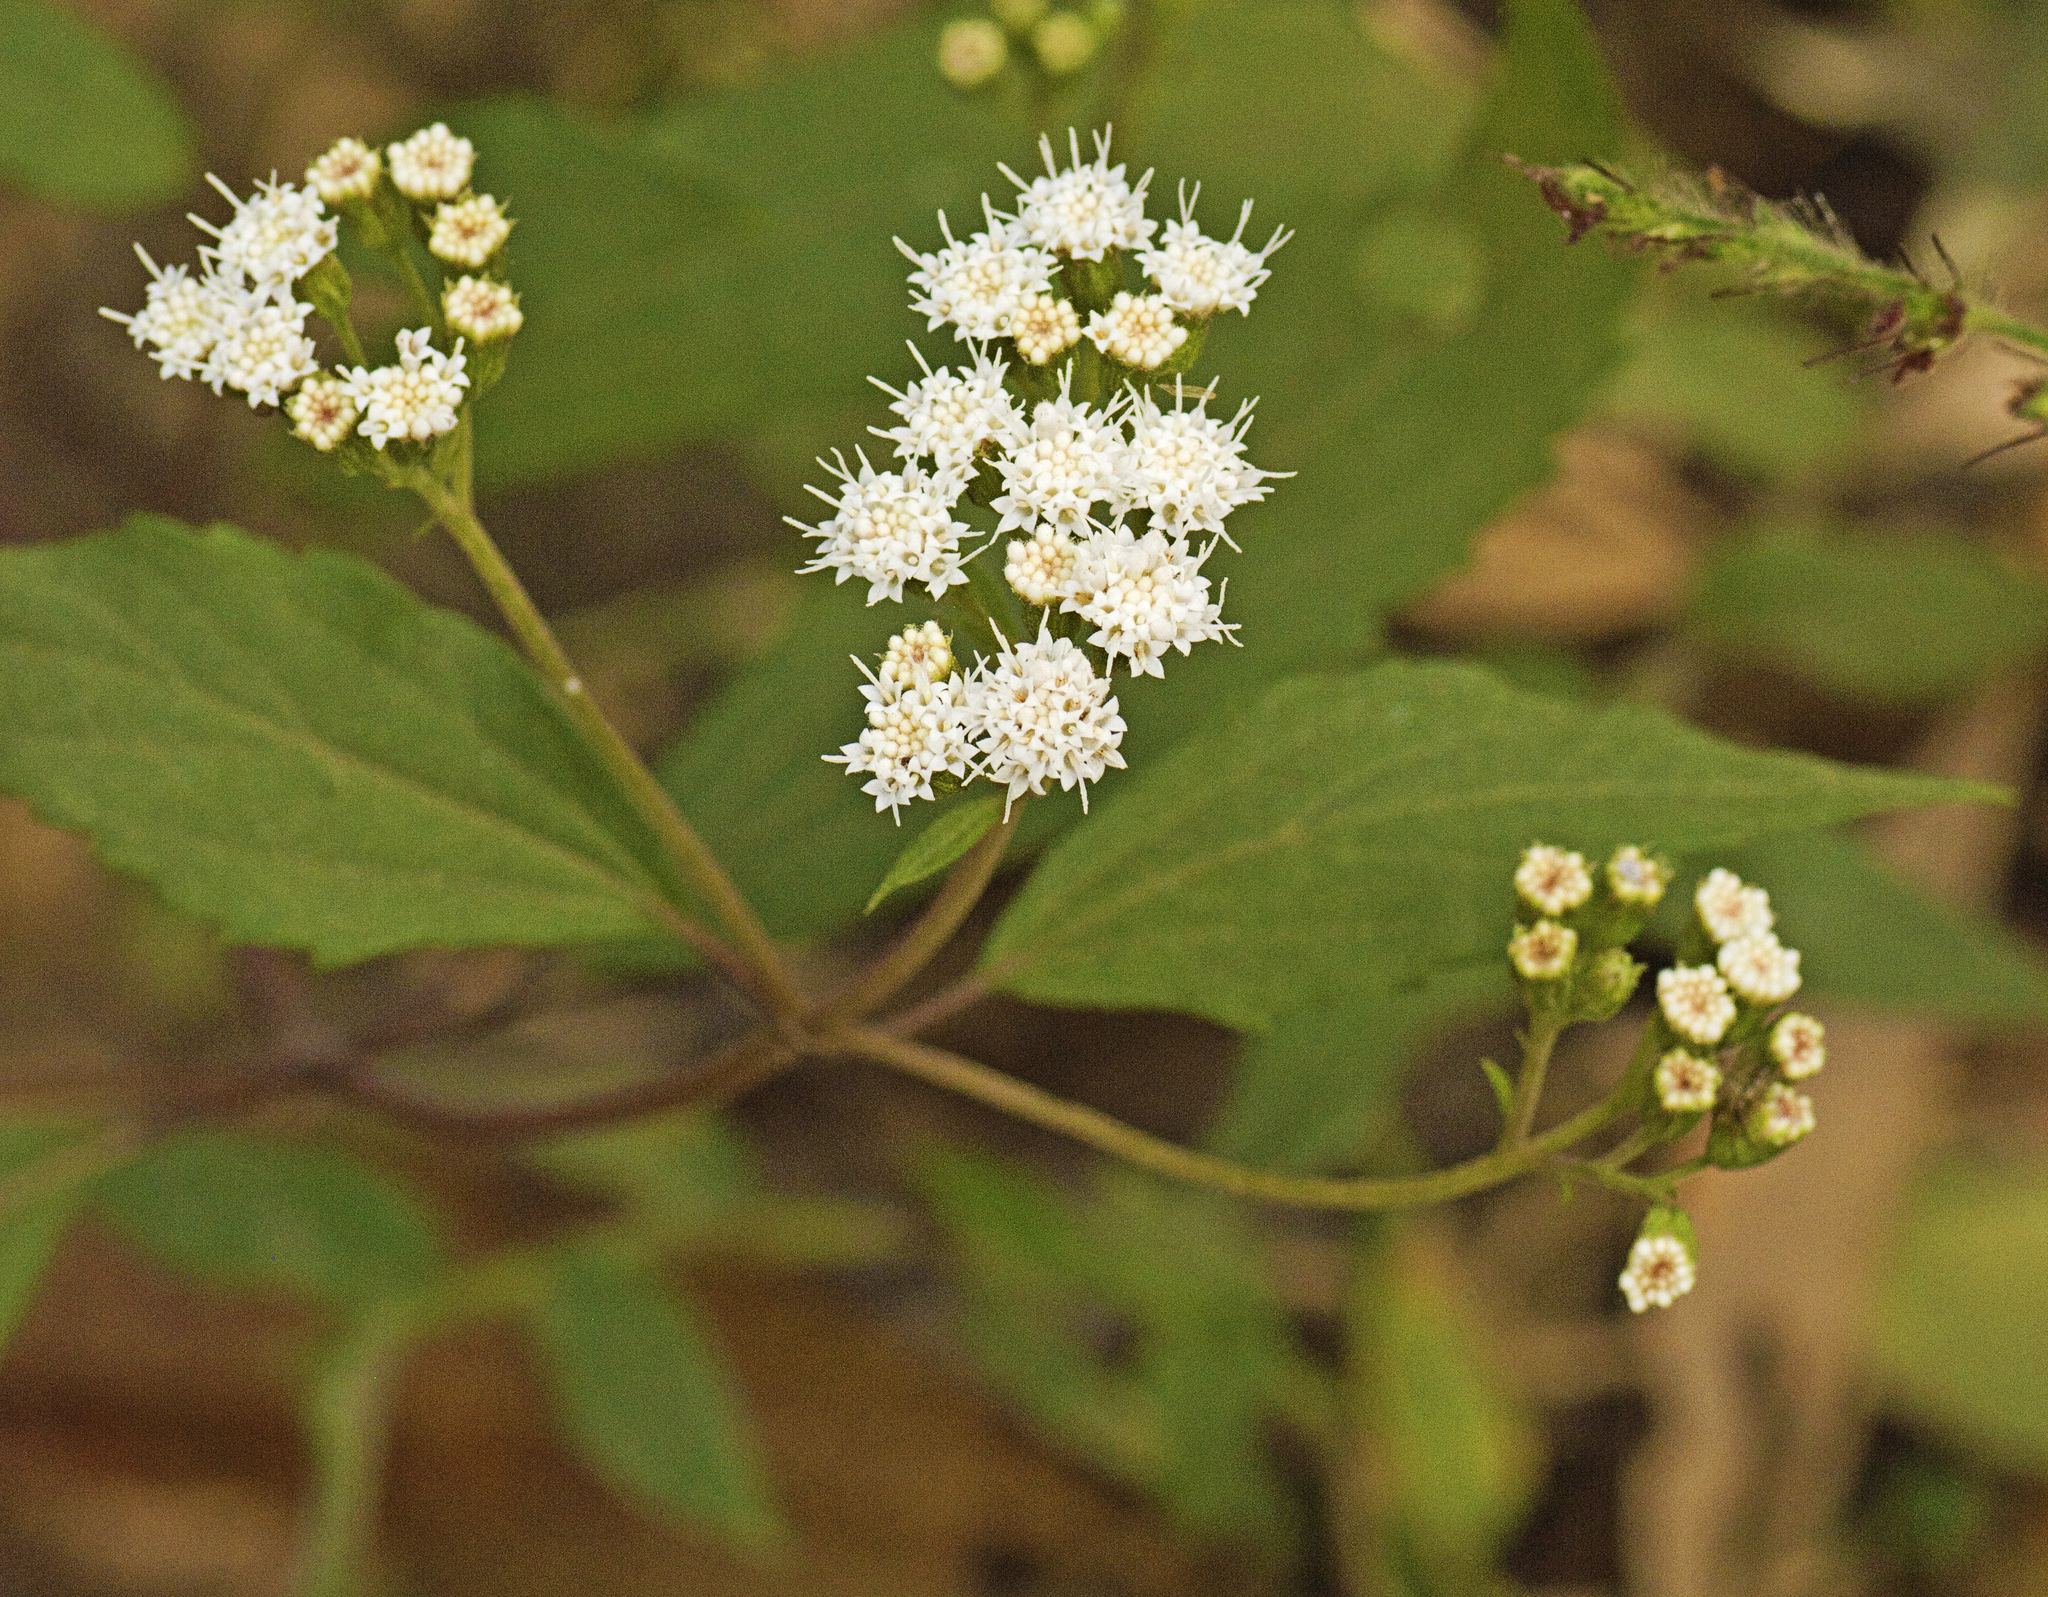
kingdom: Plantae
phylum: Tracheophyta
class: Magnoliopsida
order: Asterales
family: Asteraceae
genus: Ageratina
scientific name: Ageratina riparia
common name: Creeping croftonweed
